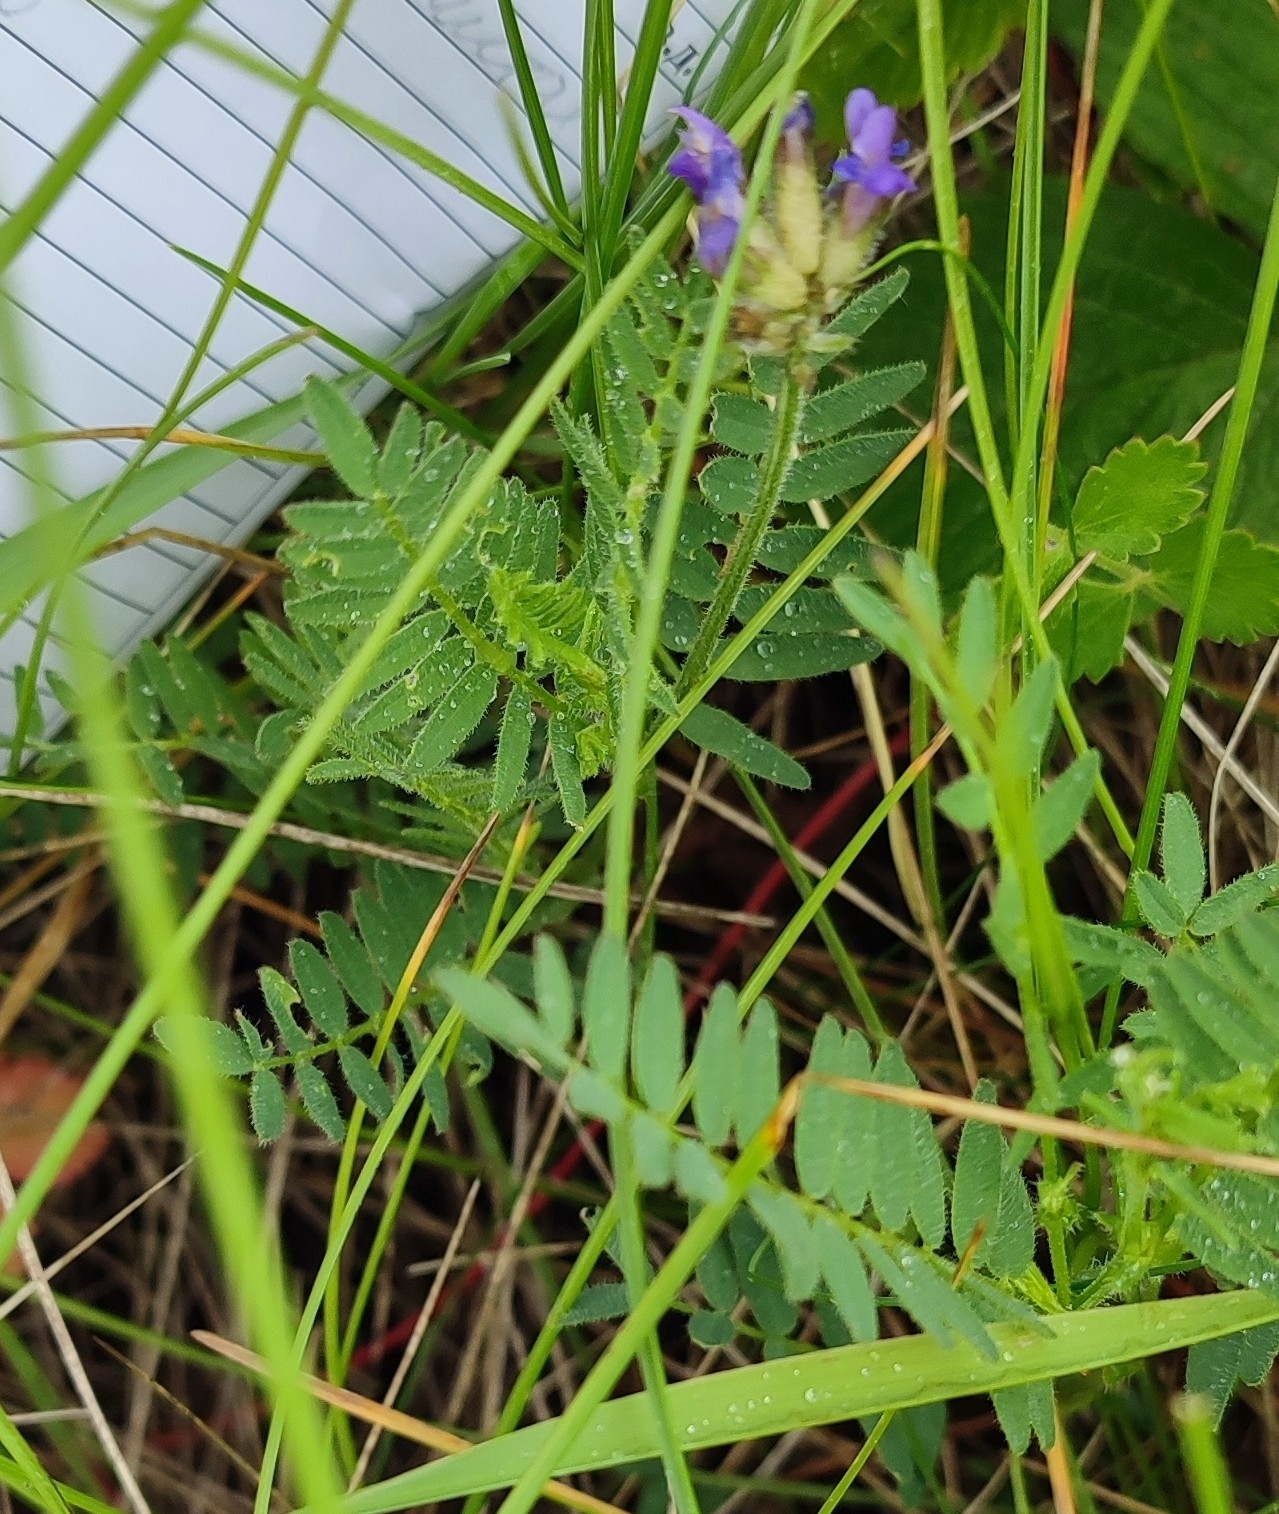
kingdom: Plantae
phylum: Tracheophyta
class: Magnoliopsida
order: Fabales
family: Fabaceae
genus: Astragalus
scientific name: Astragalus danicus
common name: Purple milk-vetch
